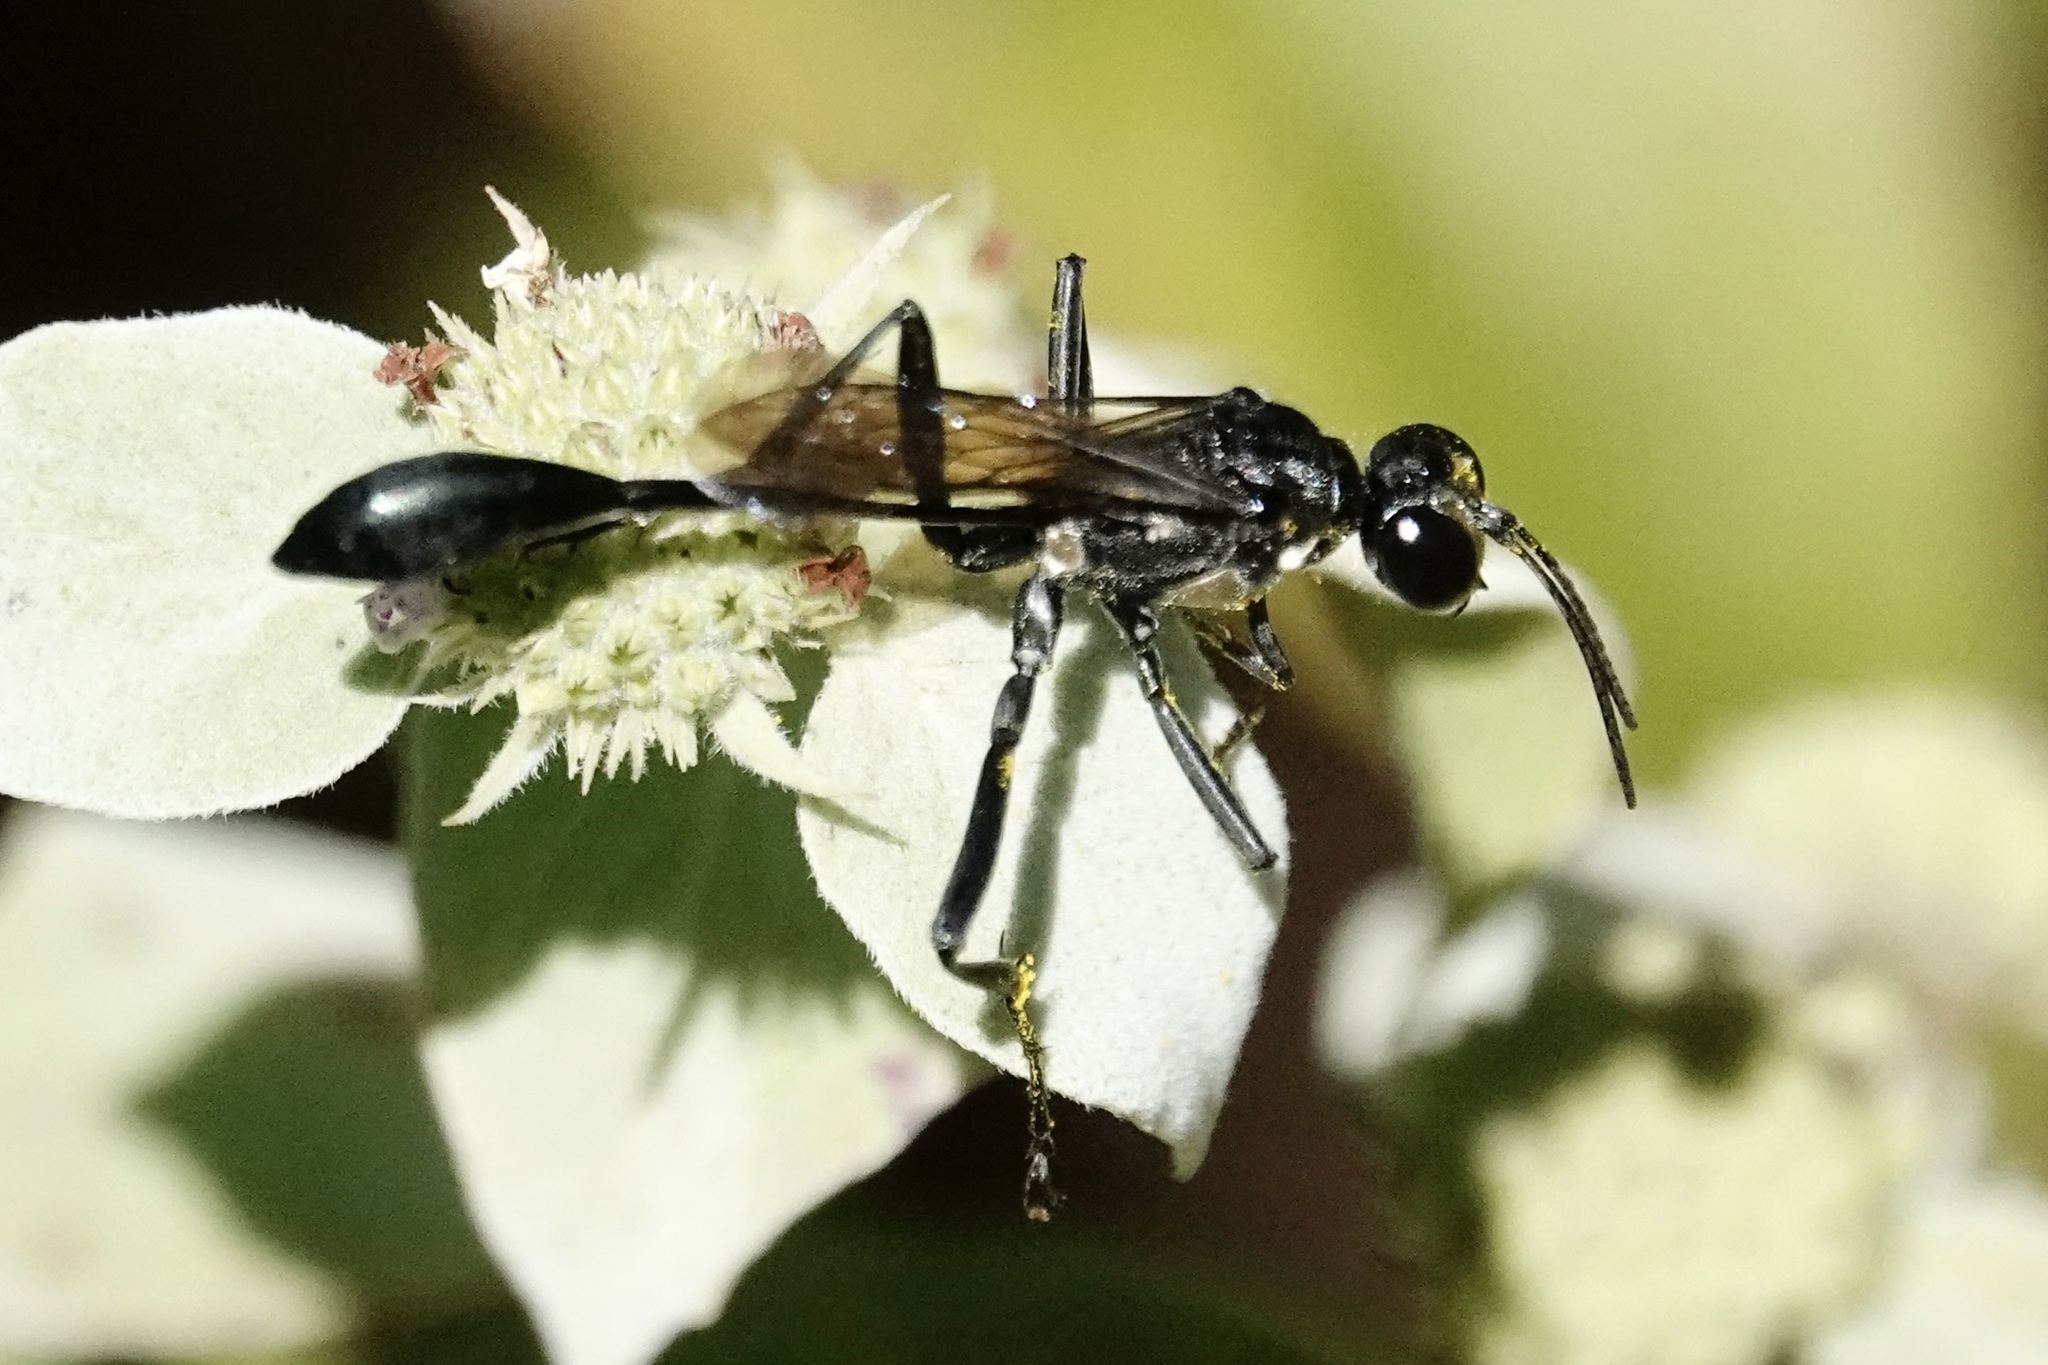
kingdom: Animalia
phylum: Arthropoda
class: Insecta
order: Hymenoptera
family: Sphecidae
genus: Eremnophila
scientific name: Eremnophila aureonotata
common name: Gold-marked thread-waisted wasp
